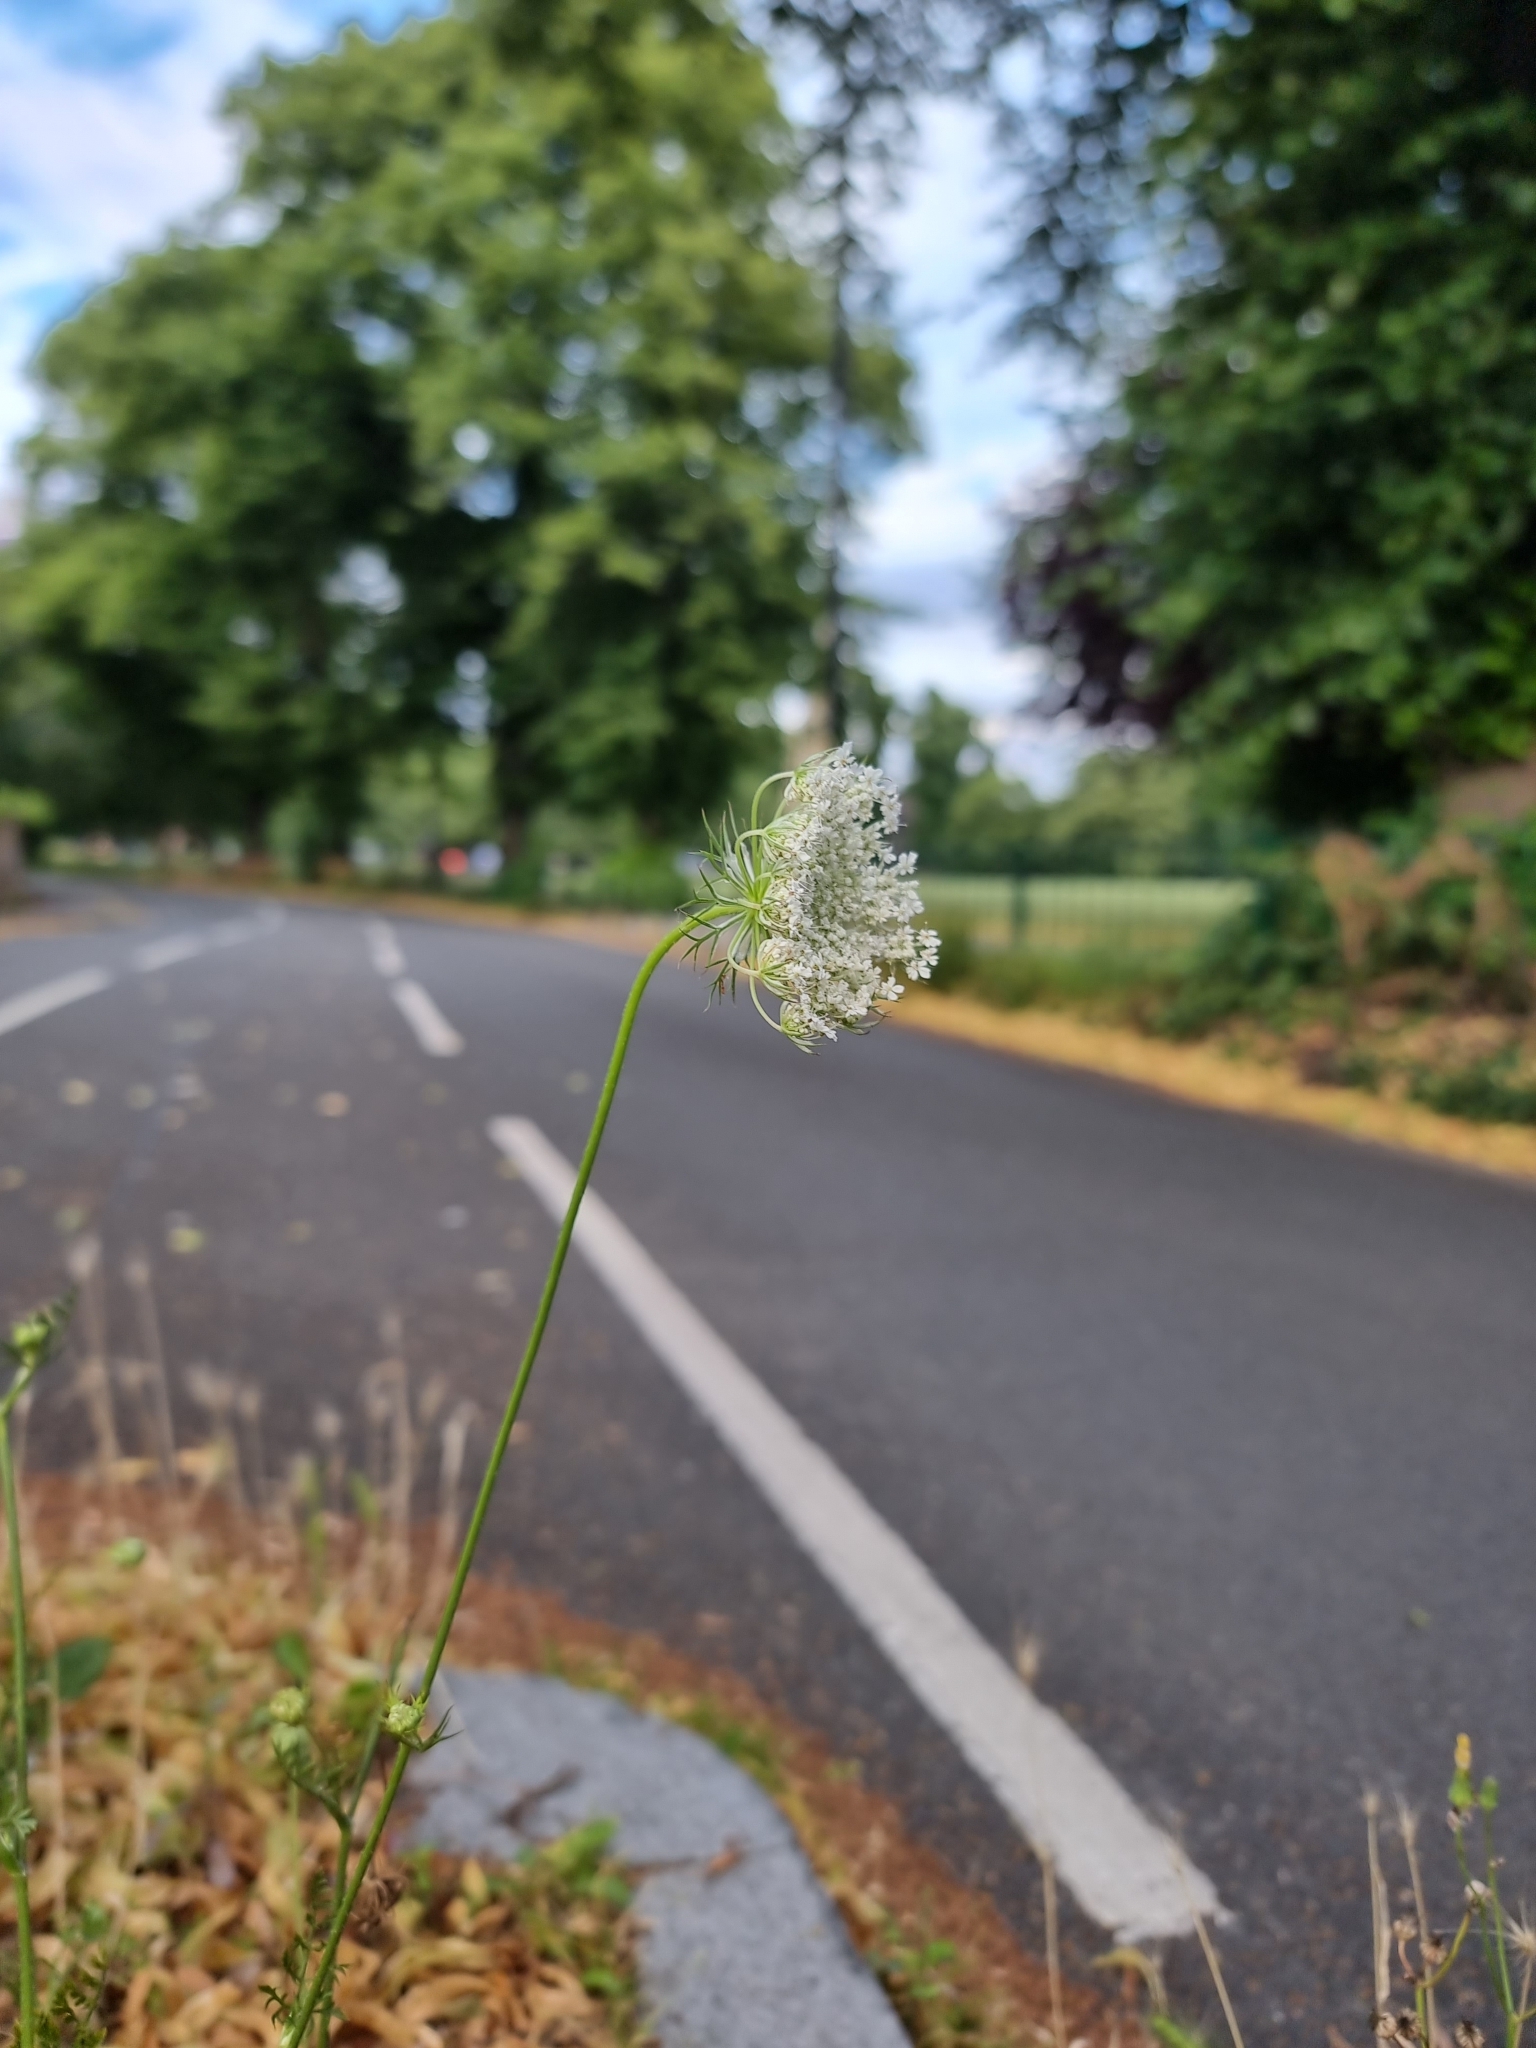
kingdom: Plantae
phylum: Tracheophyta
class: Magnoliopsida
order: Apiales
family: Apiaceae
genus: Daucus
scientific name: Daucus carota
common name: Wild carrot
